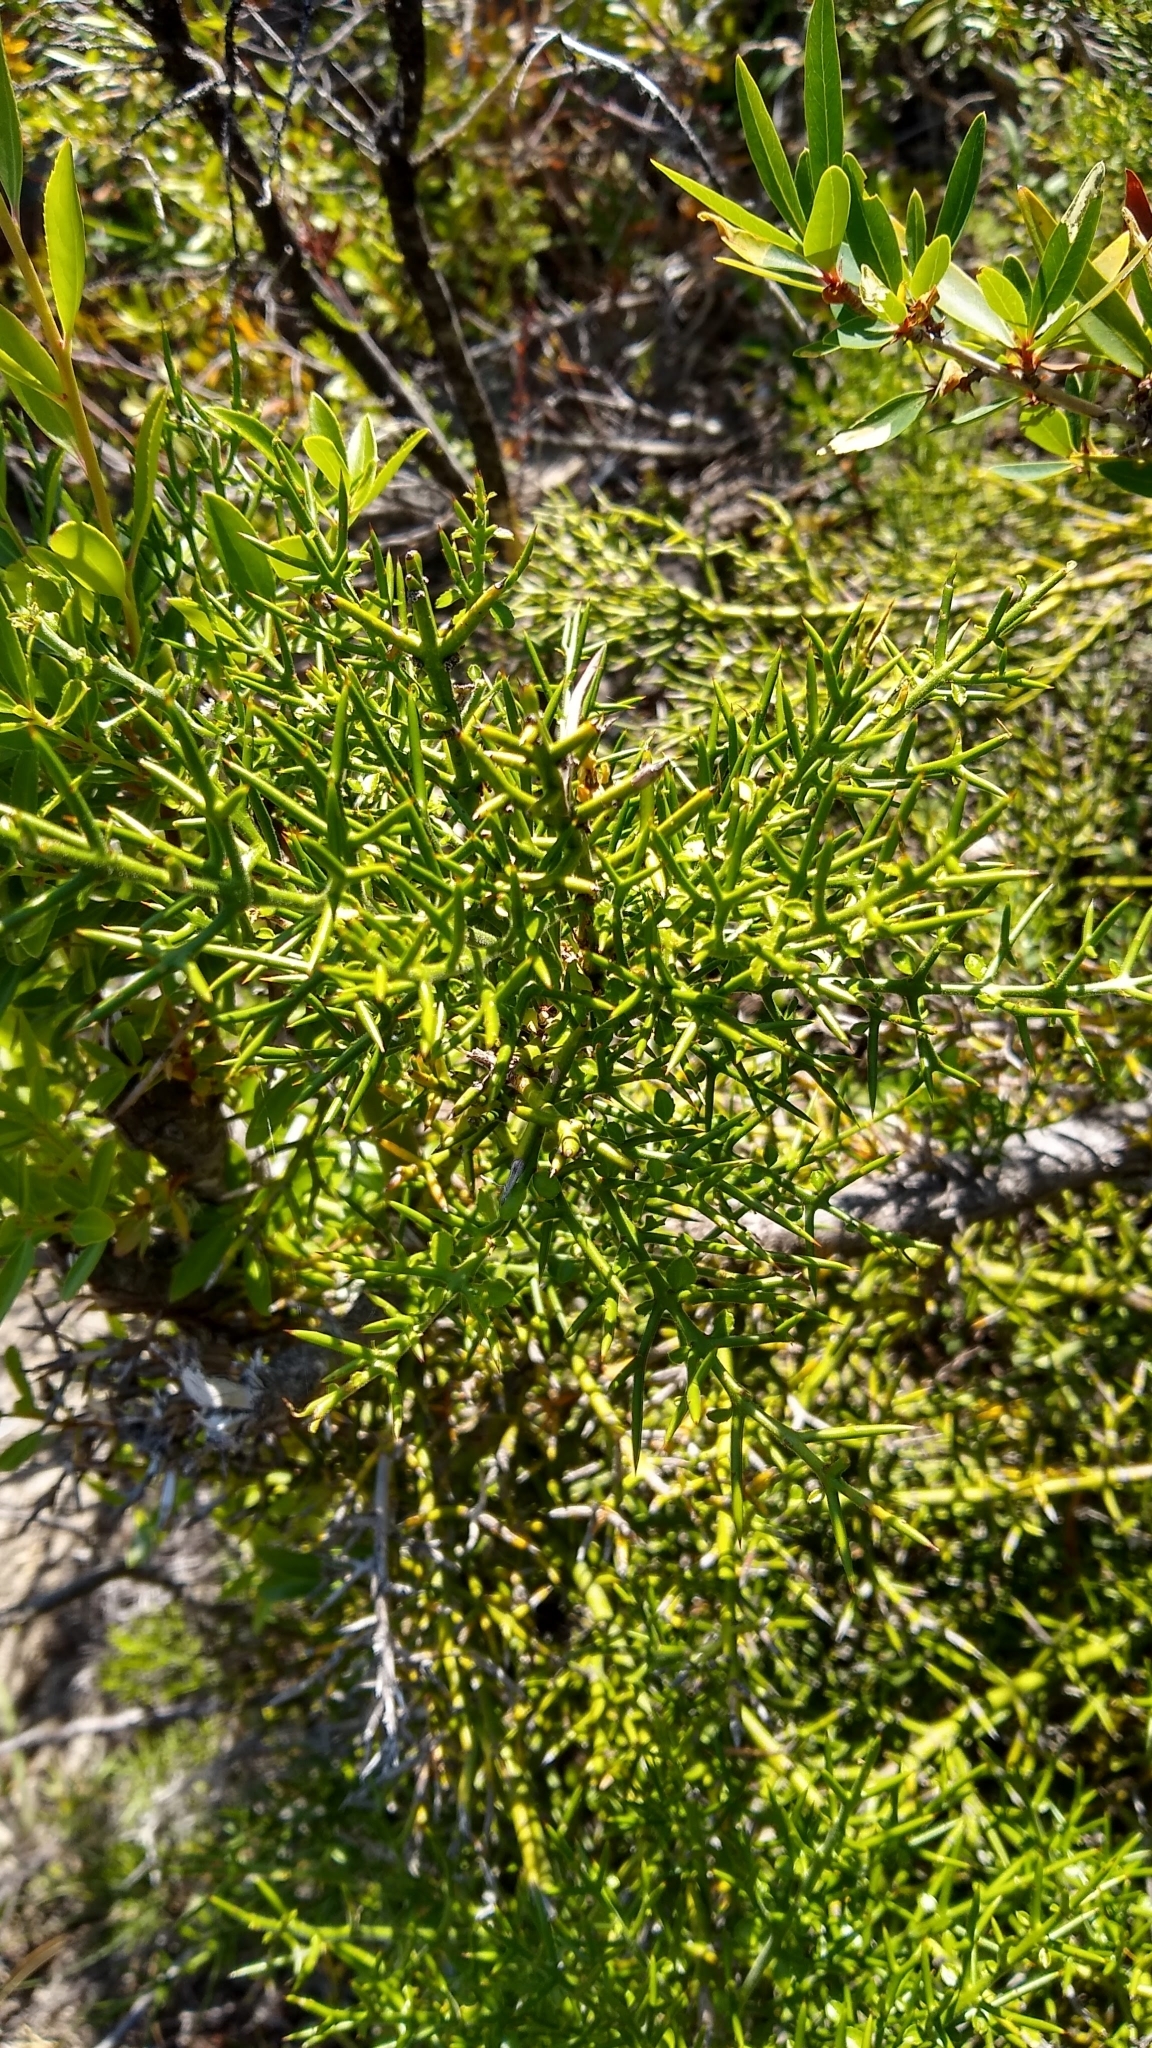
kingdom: Plantae
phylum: Tracheophyta
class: Magnoliopsida
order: Rosales
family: Rhamnaceae
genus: Colletia
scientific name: Colletia hystrix
